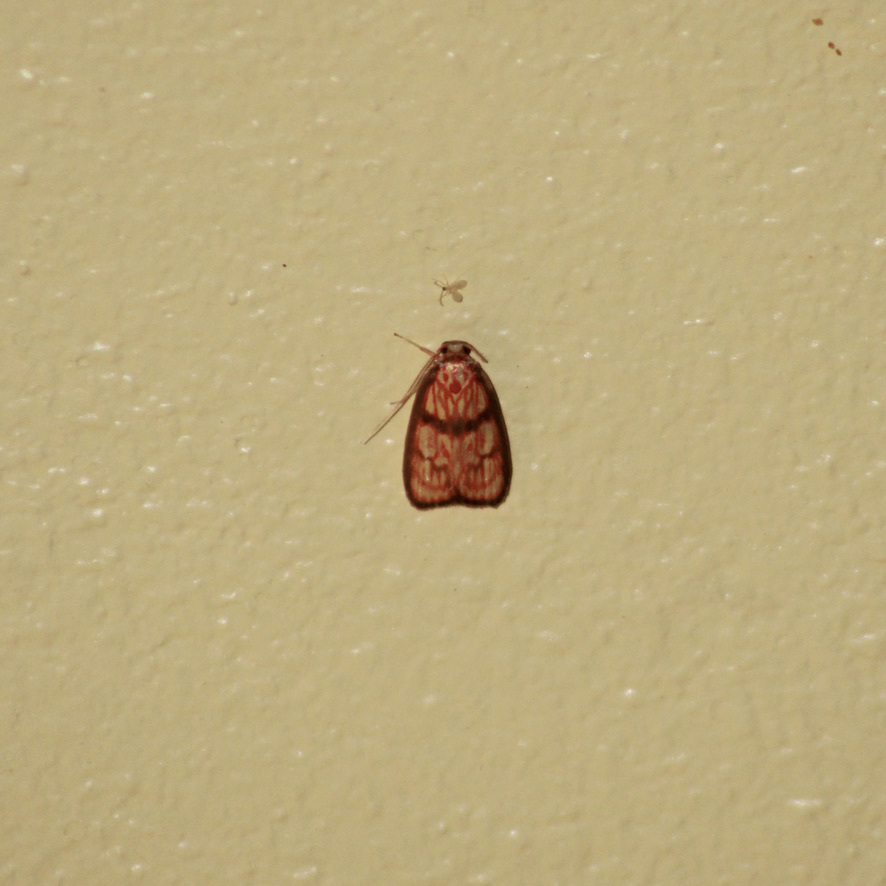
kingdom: Animalia
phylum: Arthropoda
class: Insecta
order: Lepidoptera
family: Depressariidae
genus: Himmacia
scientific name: Himmacia
